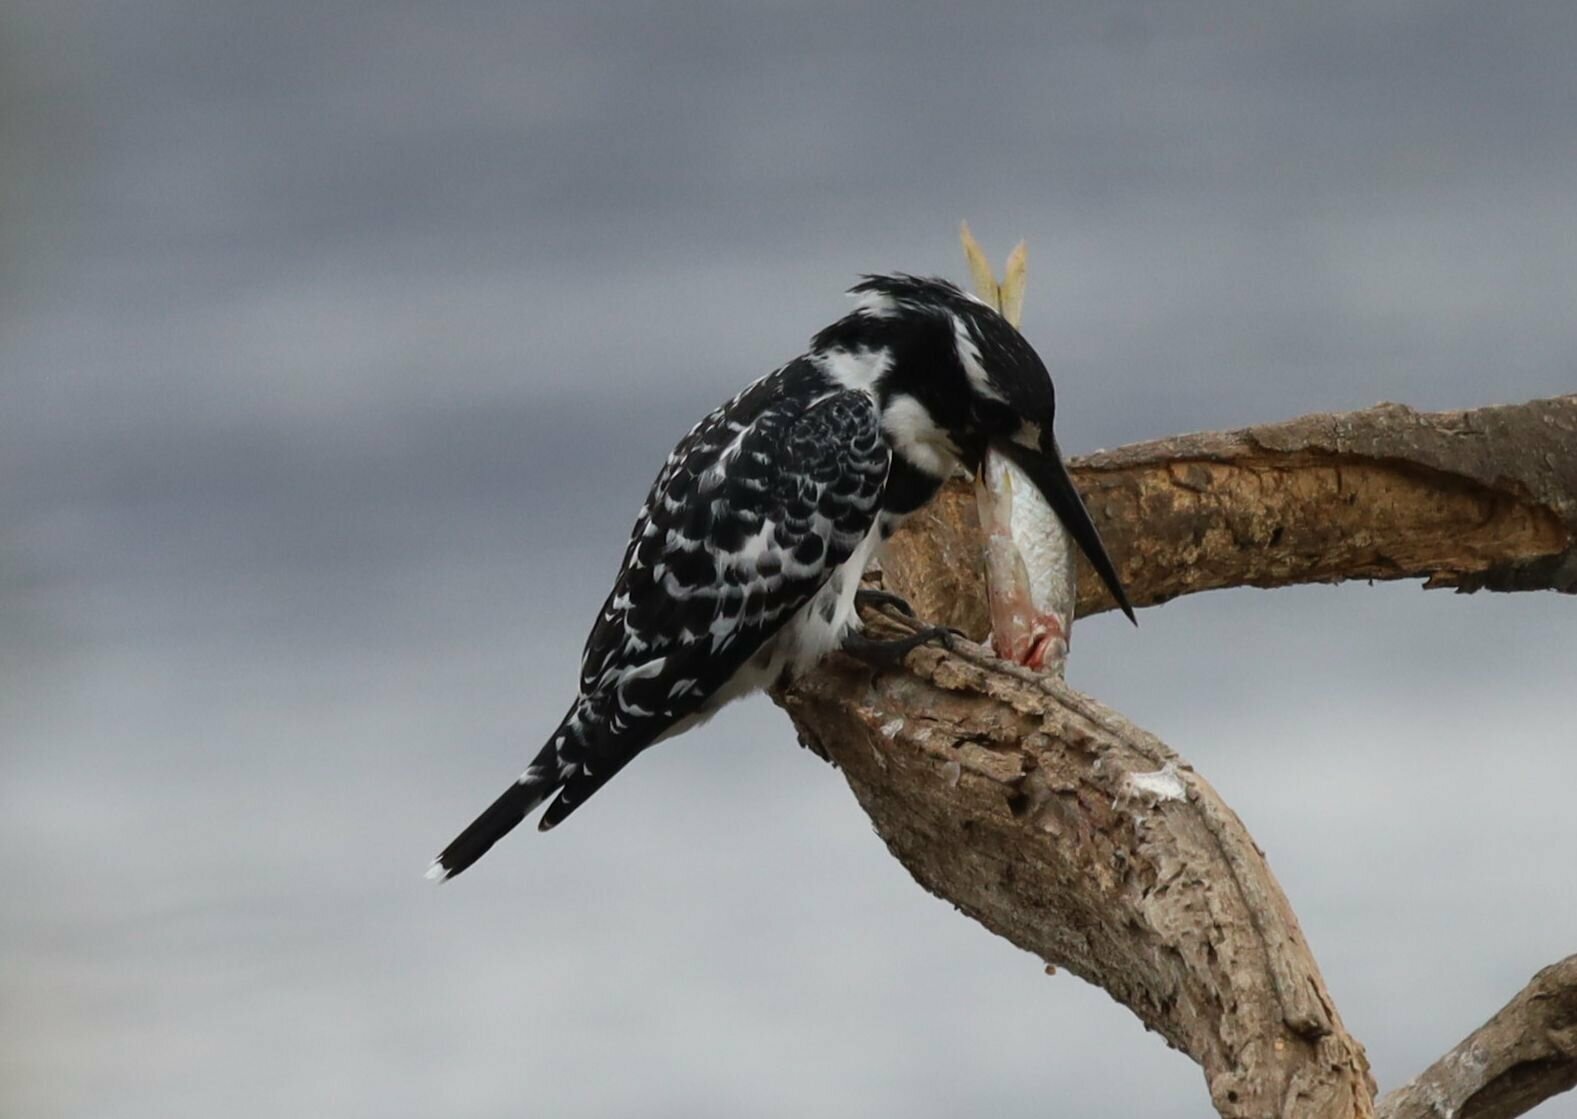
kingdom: Animalia
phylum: Chordata
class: Aves
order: Coraciiformes
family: Alcedinidae
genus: Ceryle
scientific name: Ceryle rudis
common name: Pied kingfisher
